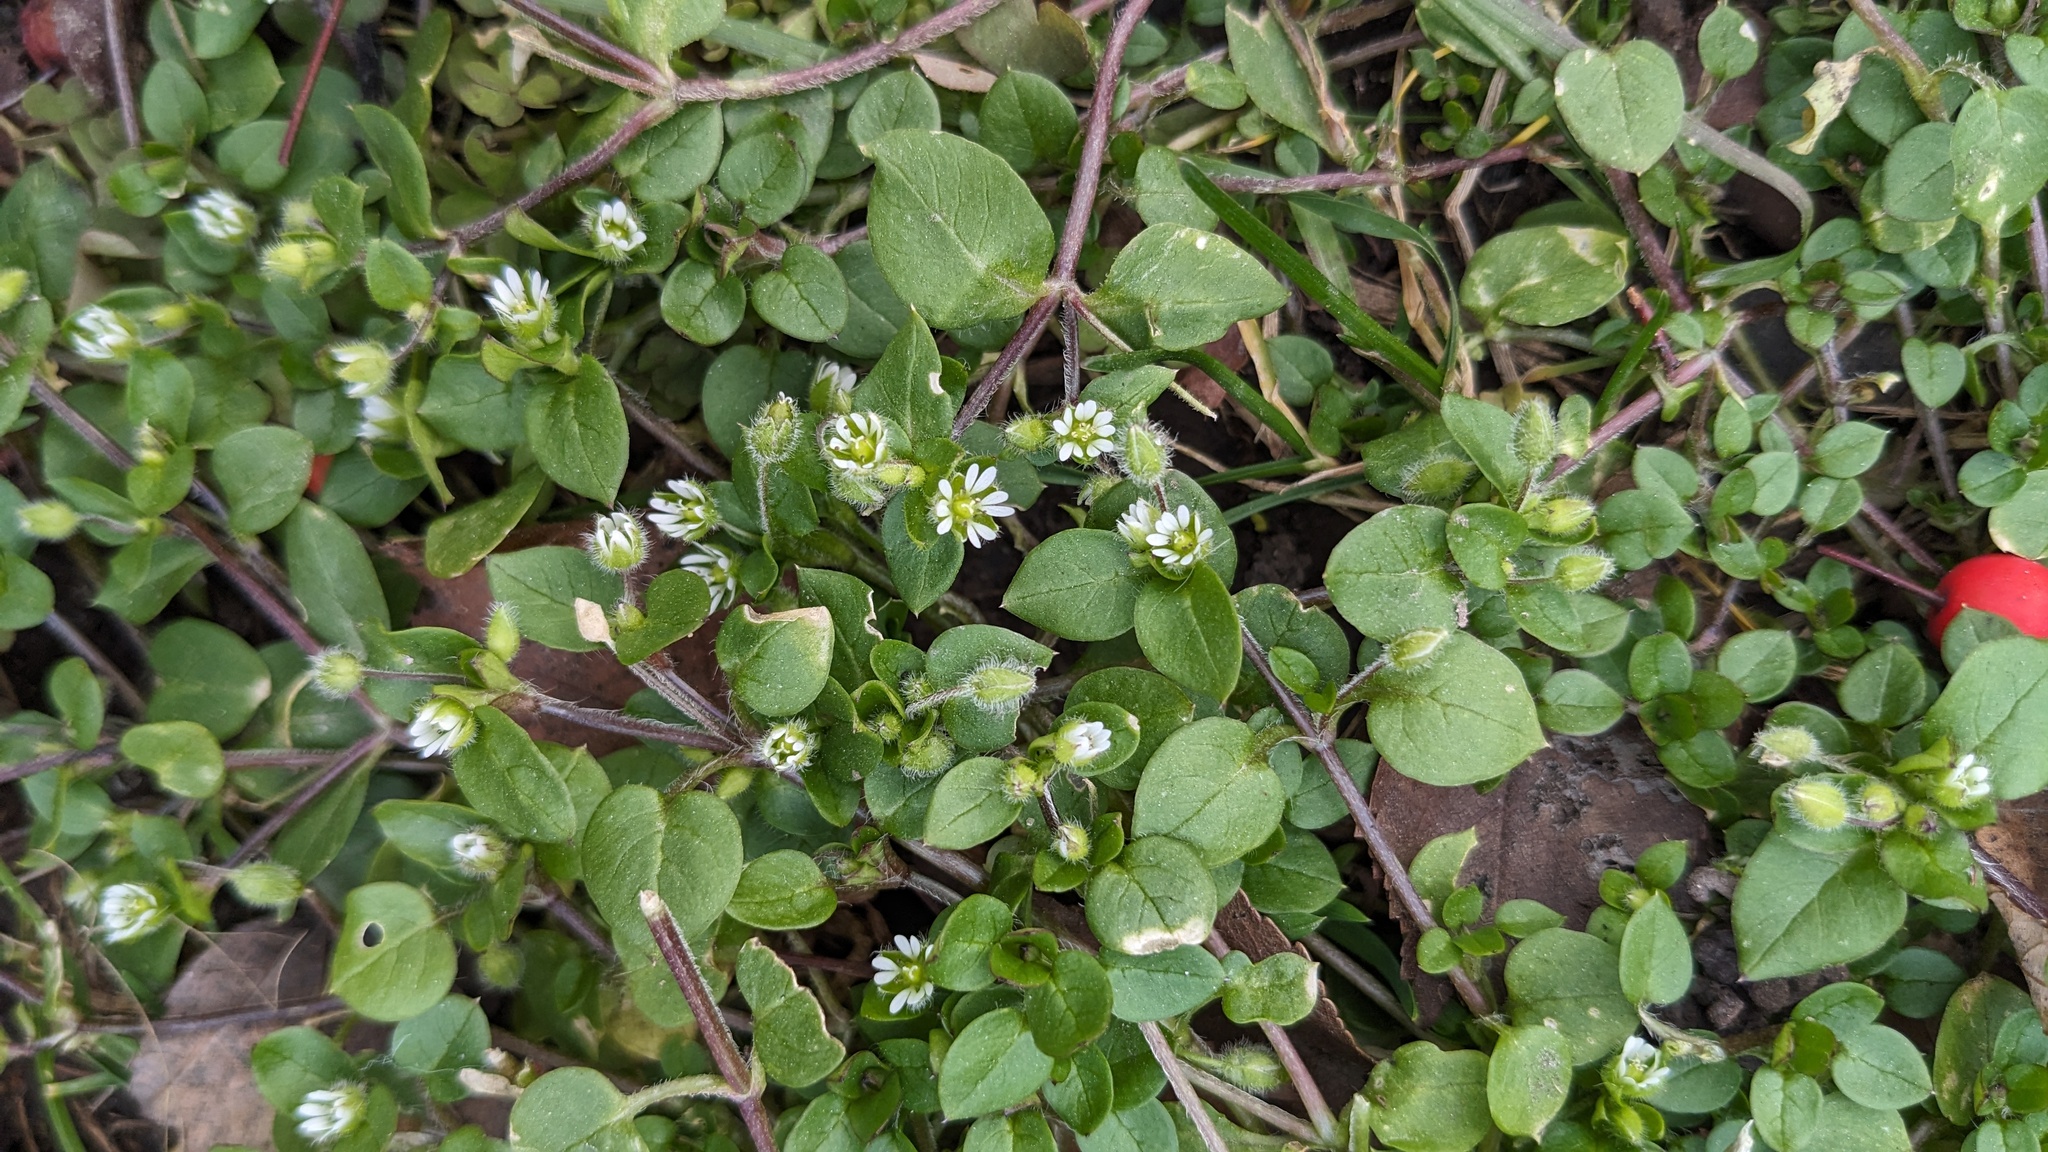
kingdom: Plantae
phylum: Tracheophyta
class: Magnoliopsida
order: Caryophyllales
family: Caryophyllaceae
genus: Stellaria
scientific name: Stellaria media
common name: Common chickweed
